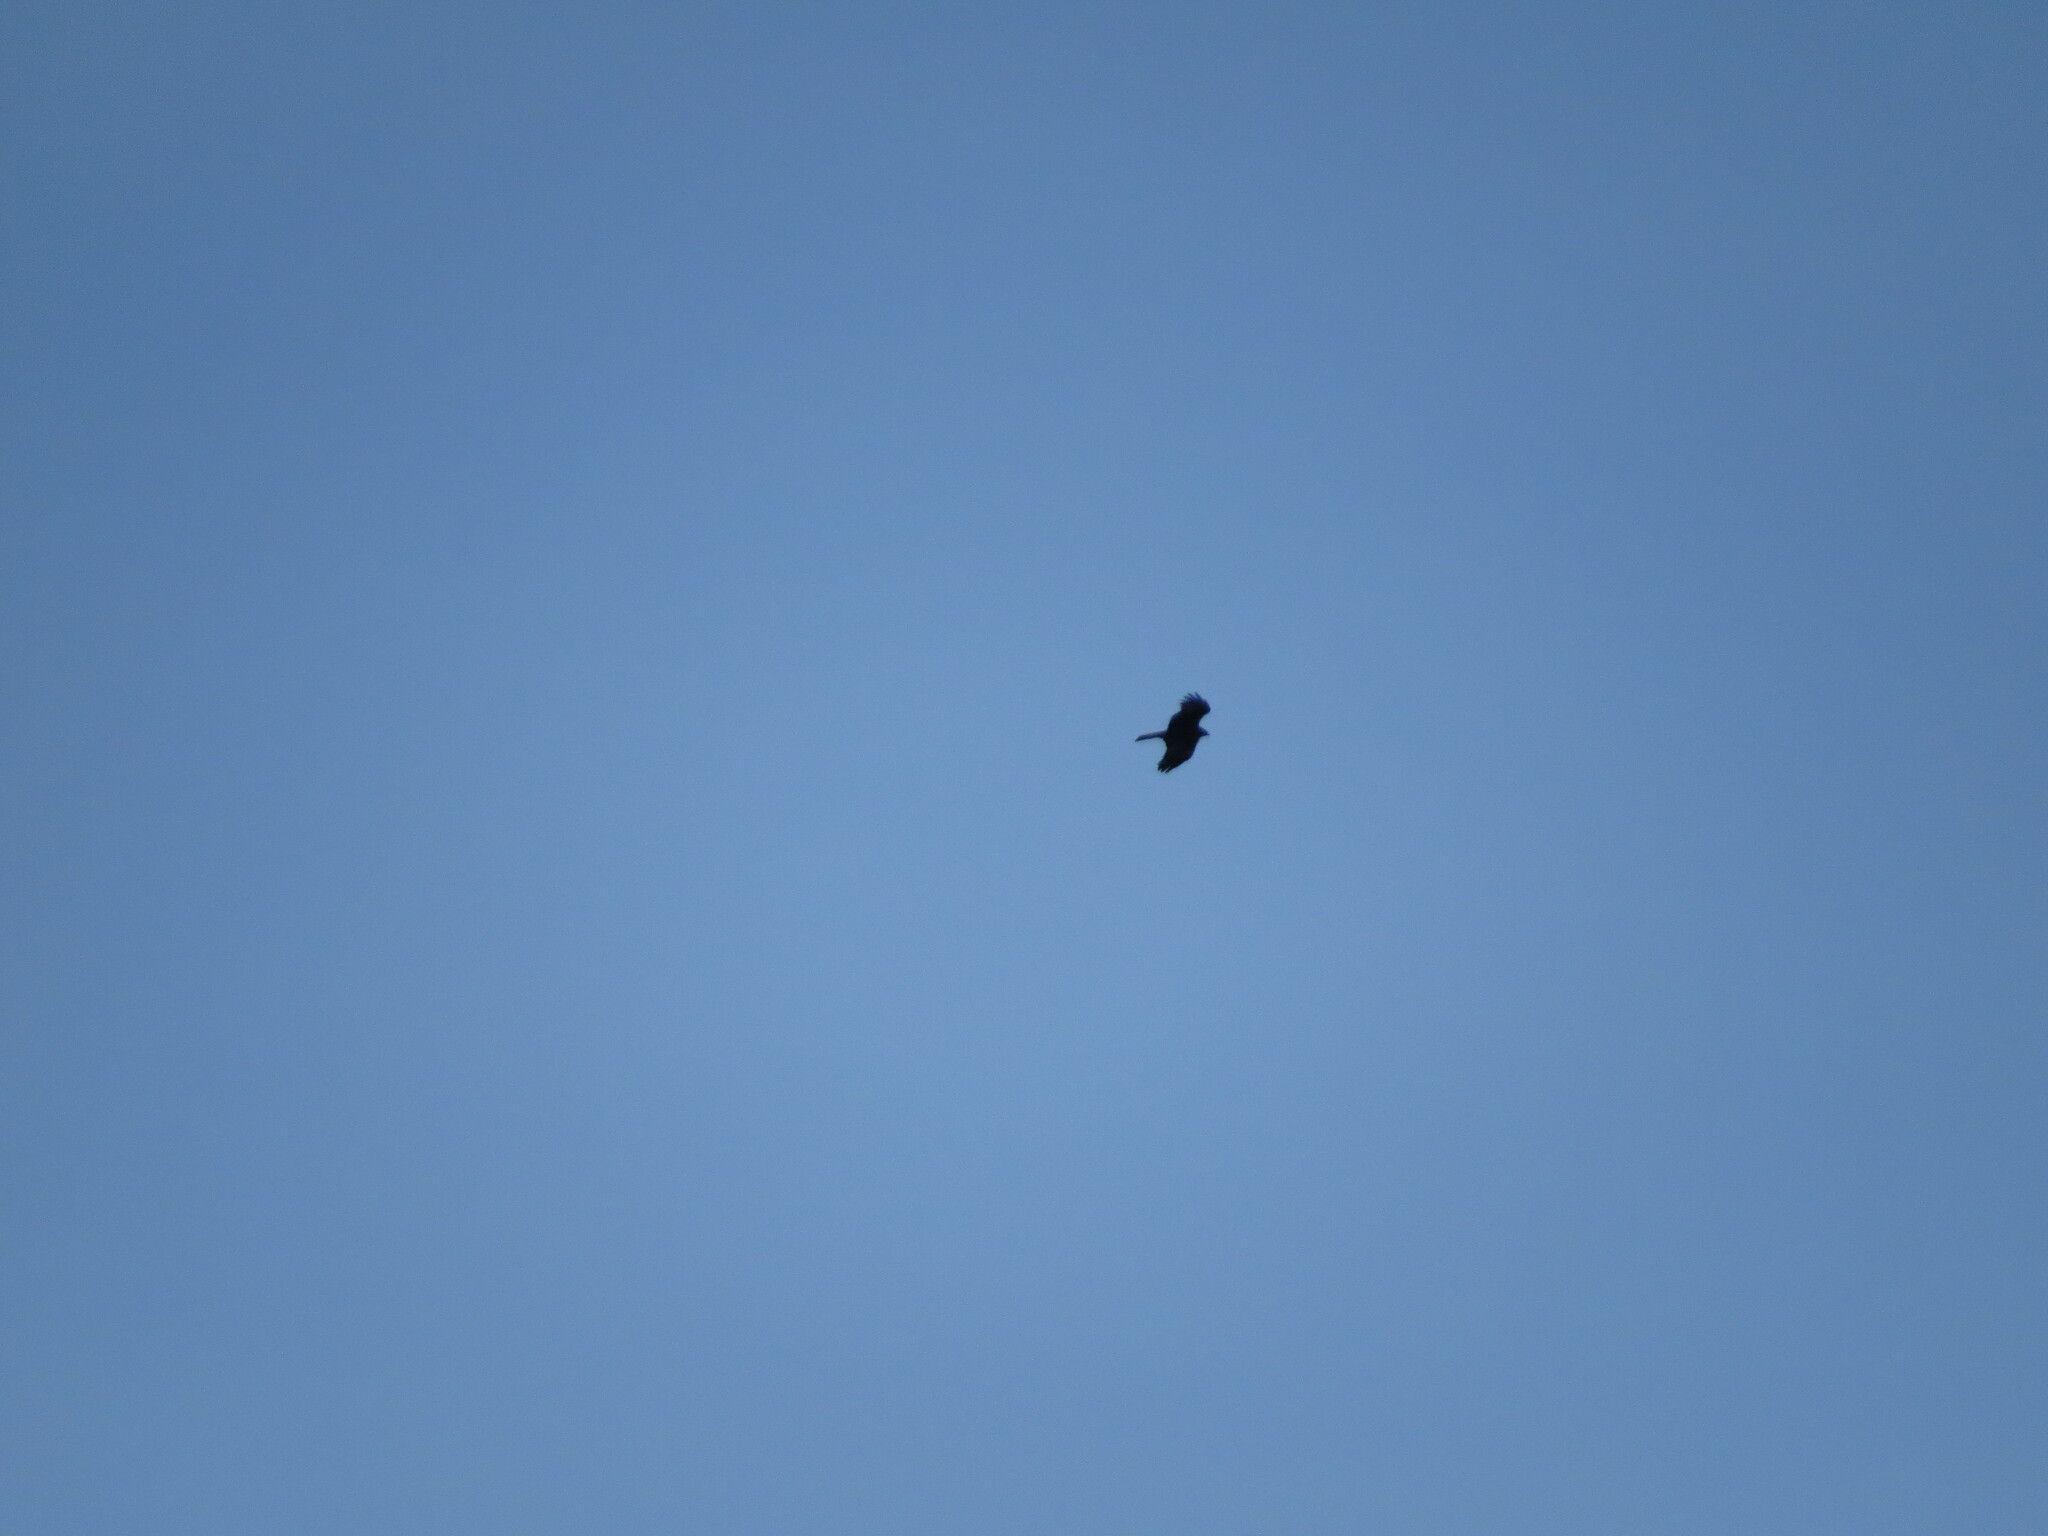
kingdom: Animalia
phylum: Chordata
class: Aves
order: Accipitriformes
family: Accipitridae
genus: Milvus
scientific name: Milvus migrans
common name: Black kite
